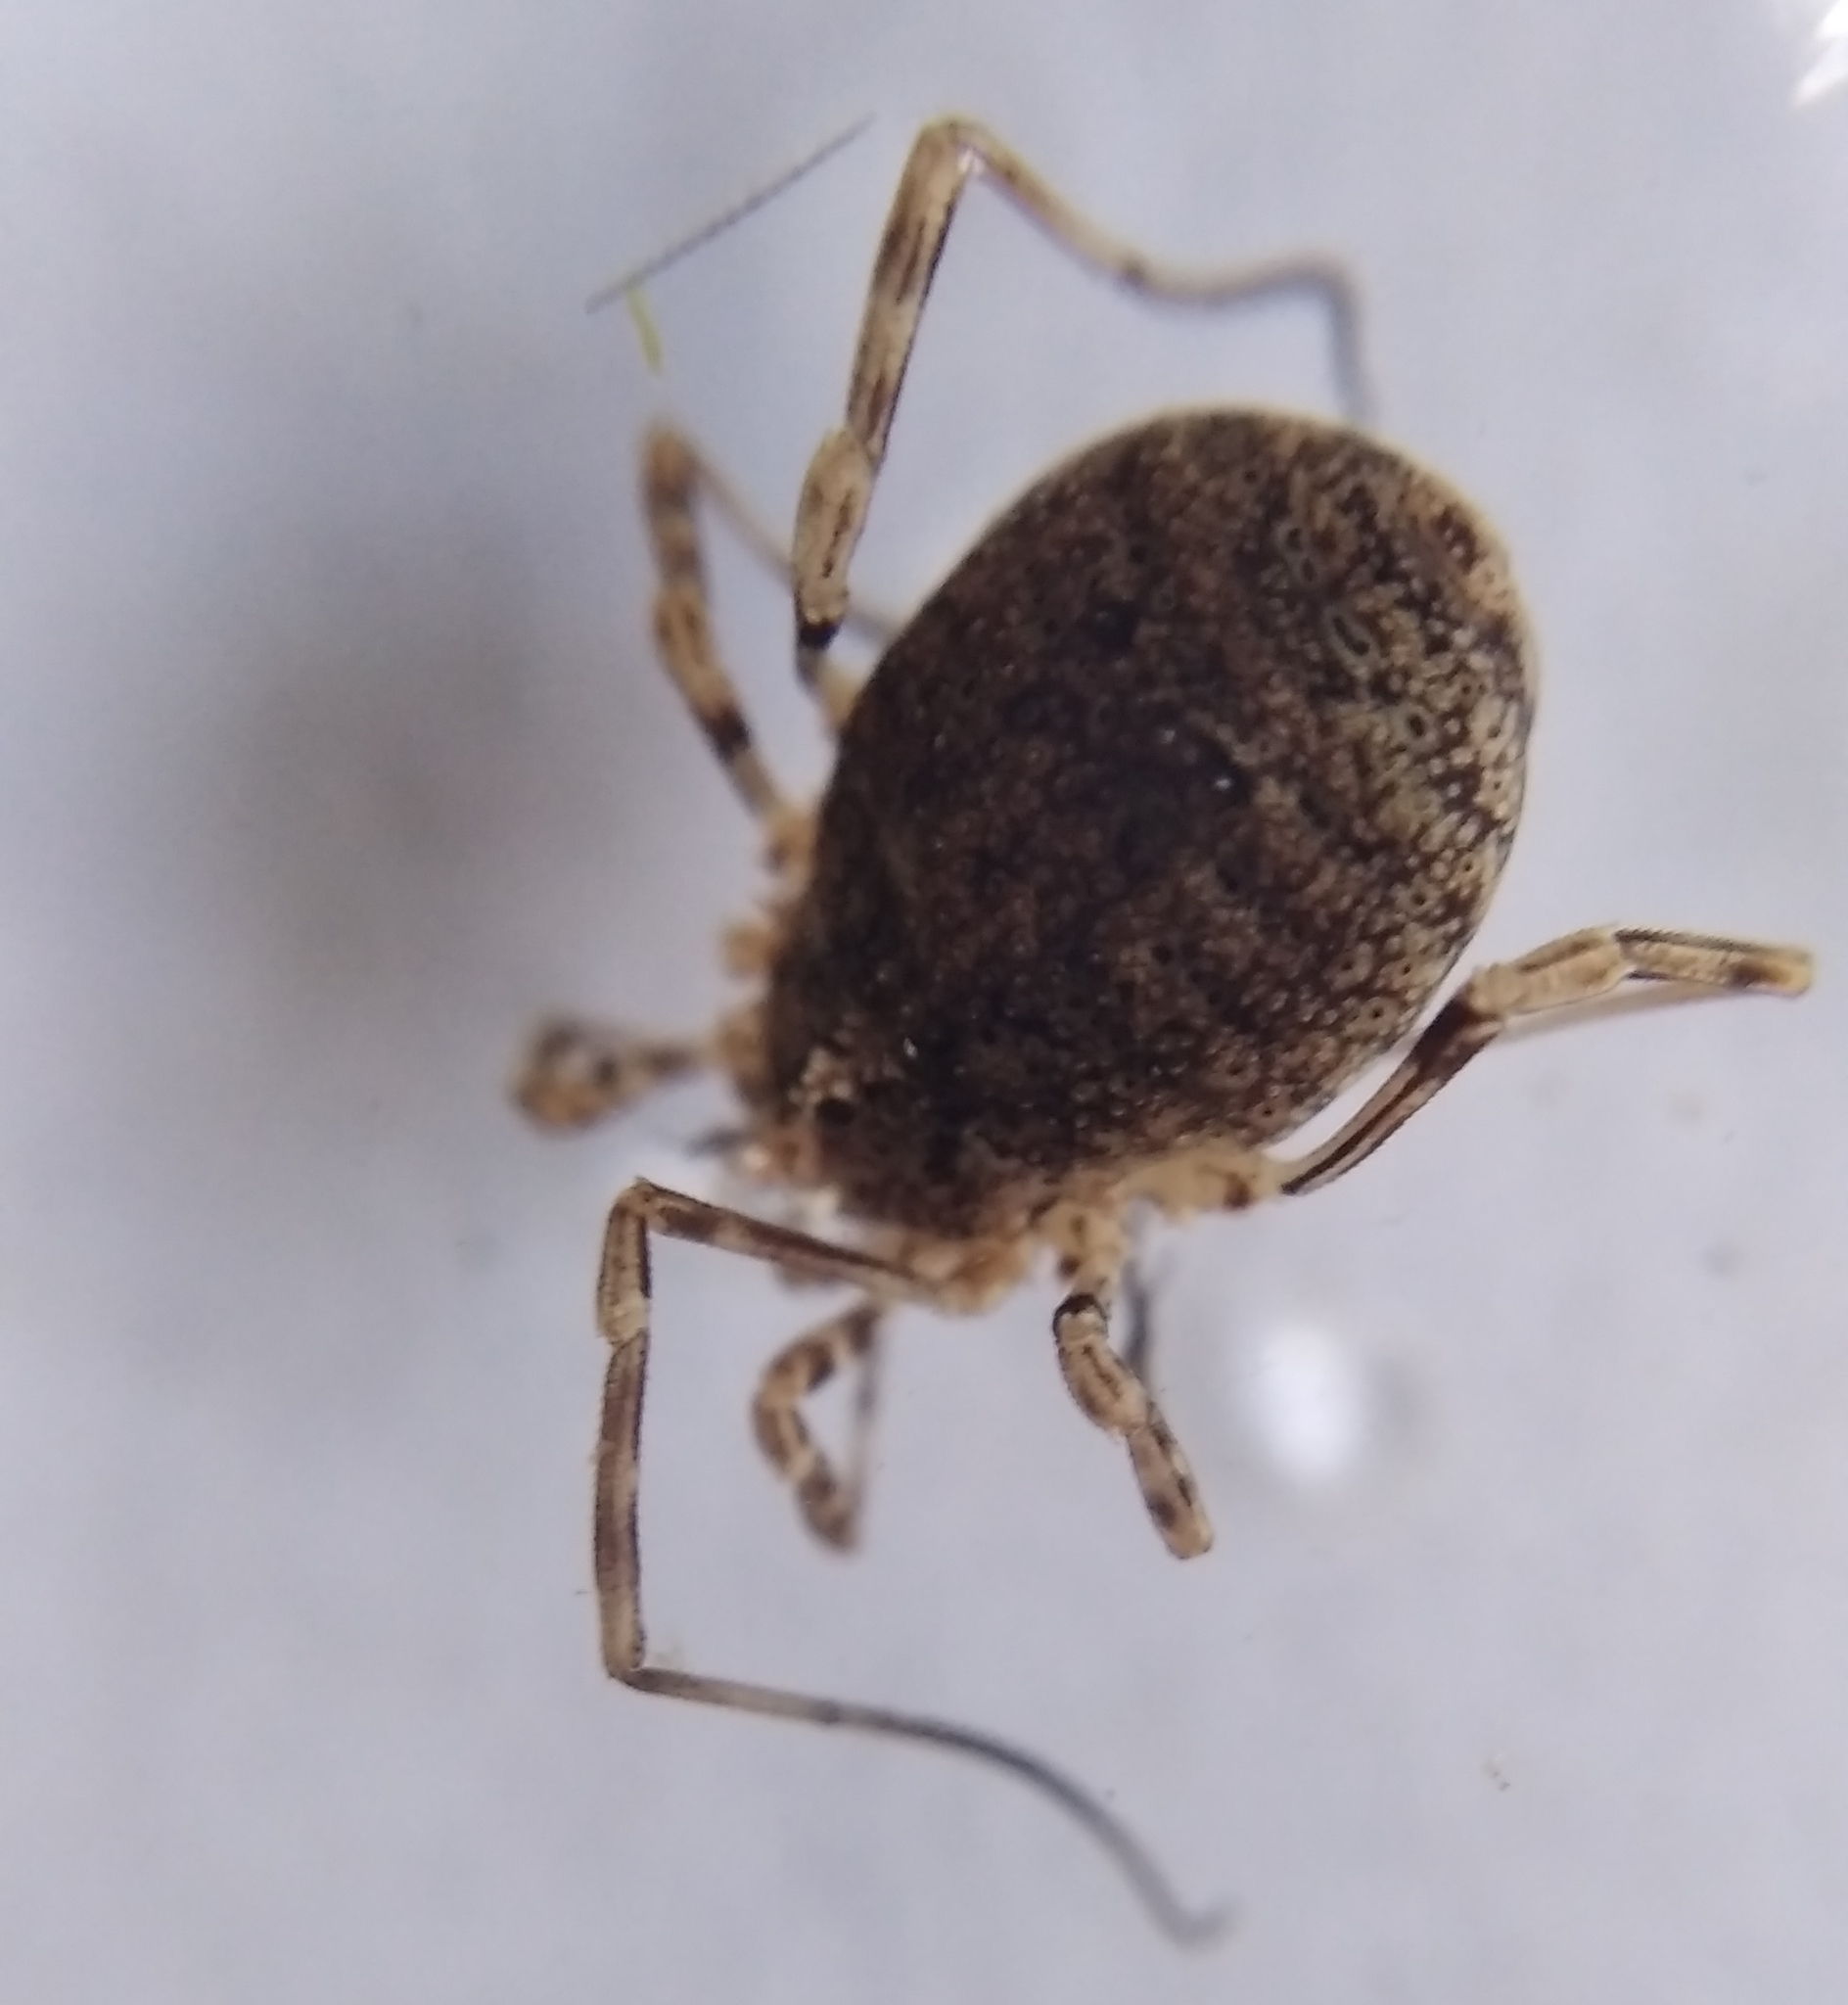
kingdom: Animalia
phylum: Arthropoda
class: Arachnida
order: Opiliones
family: Phalangiidae
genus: Odiellus
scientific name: Odiellus lendlii
